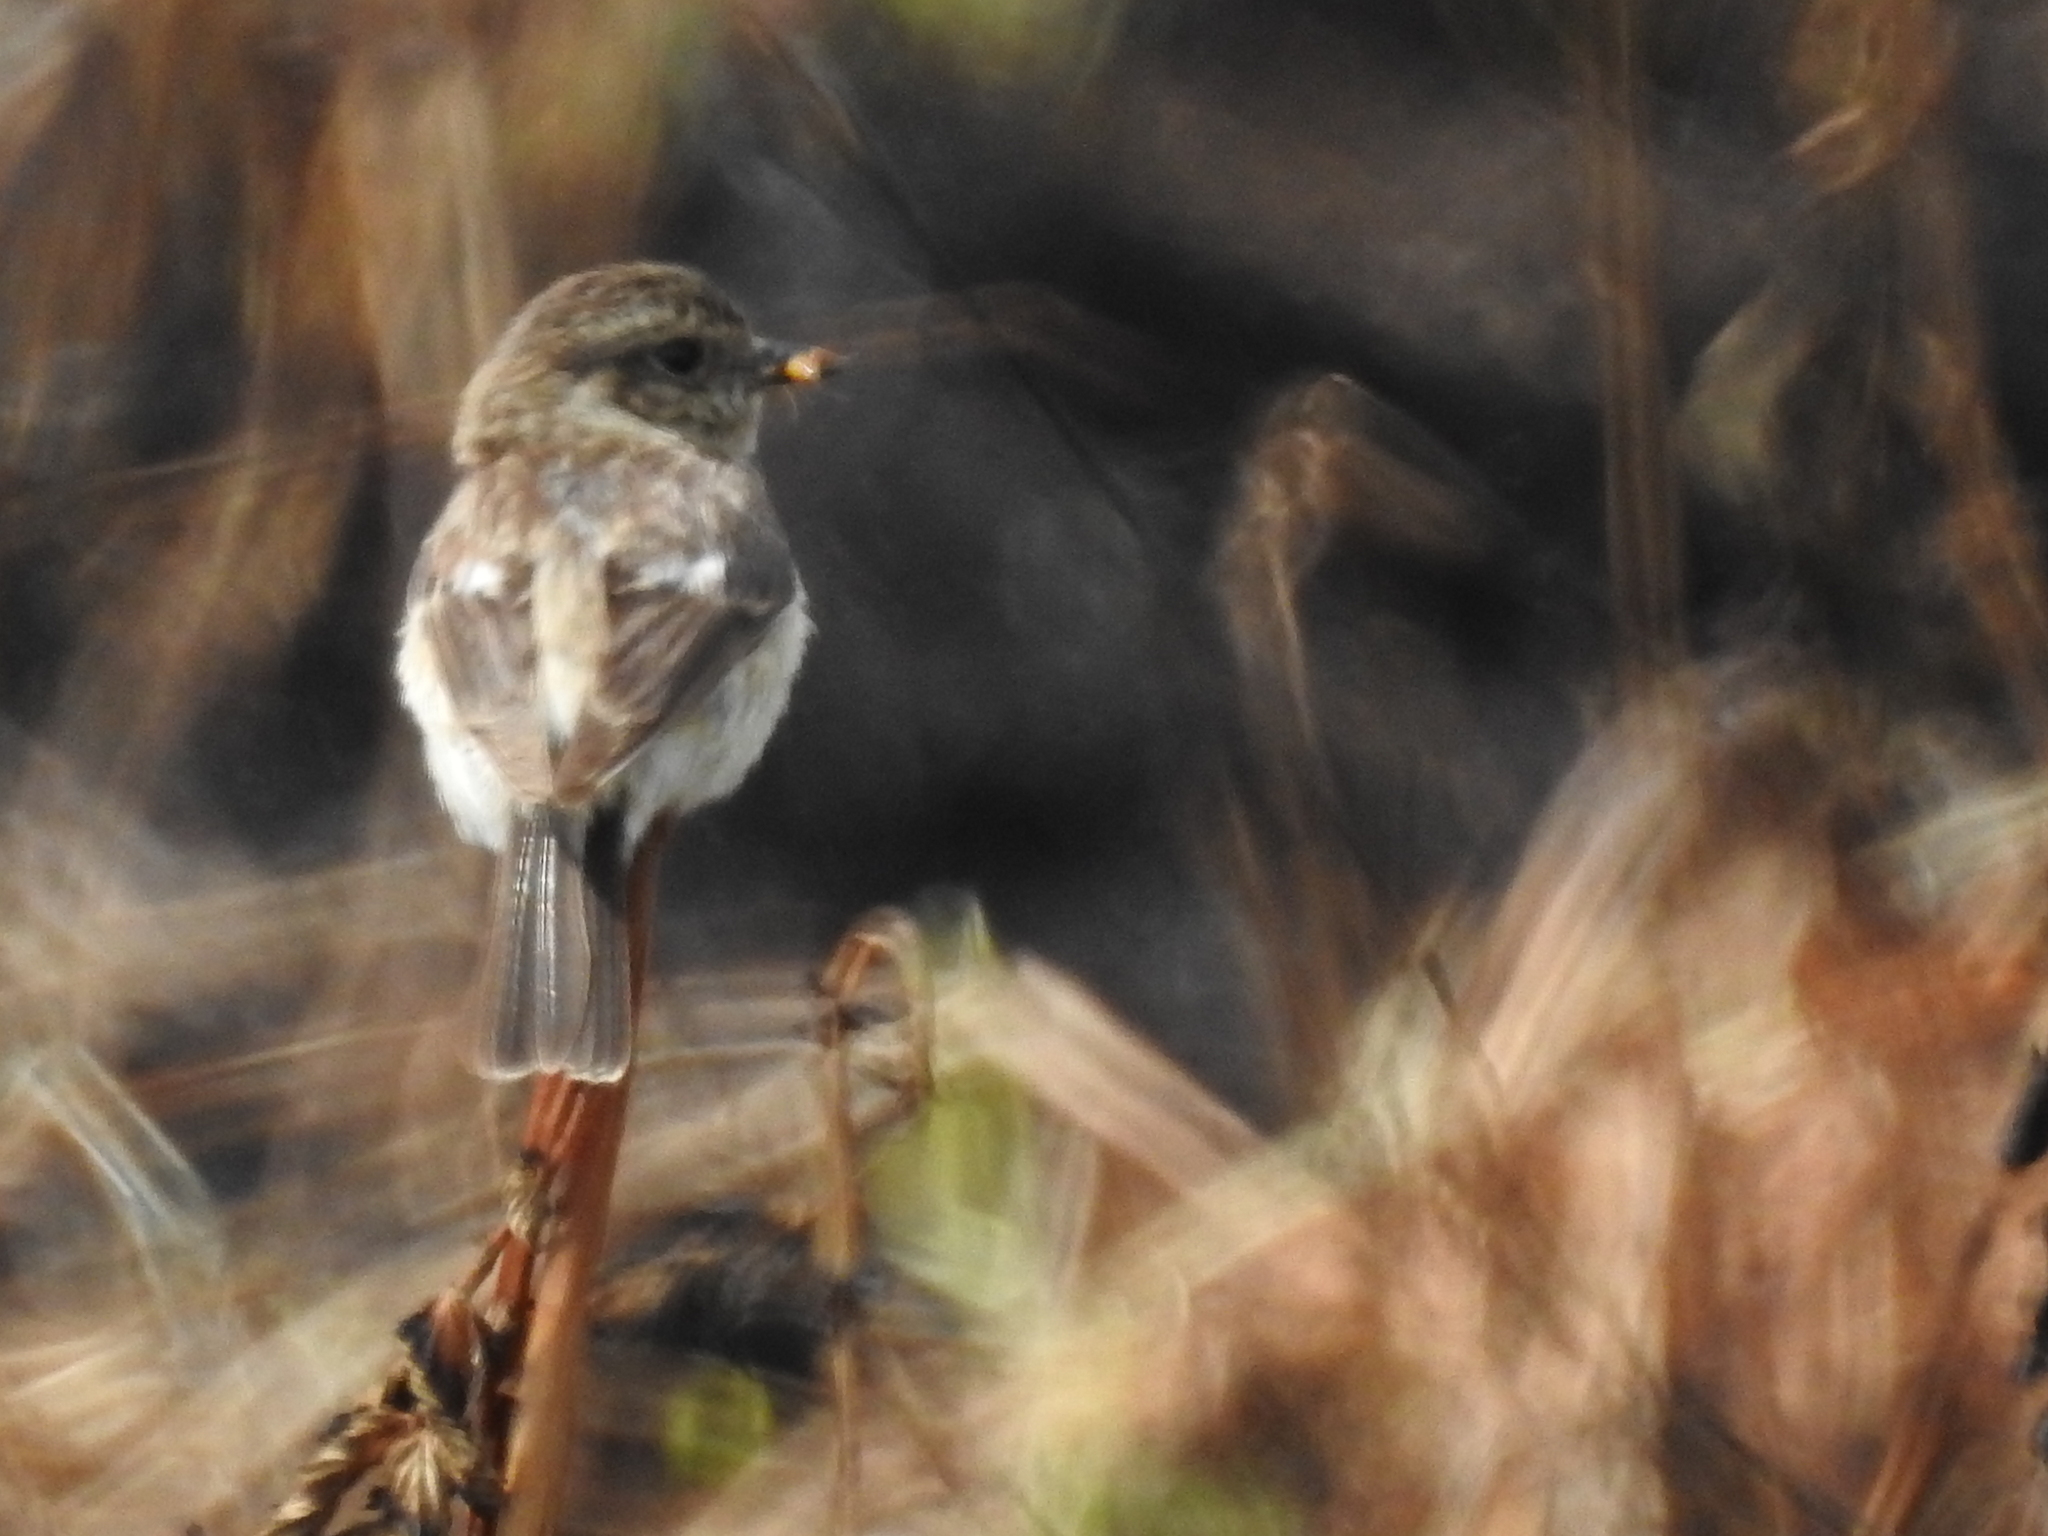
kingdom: Animalia
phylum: Chordata
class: Aves
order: Passeriformes
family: Muscicapidae
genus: Saxicola
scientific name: Saxicola maurus
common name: Siberian stonechat
